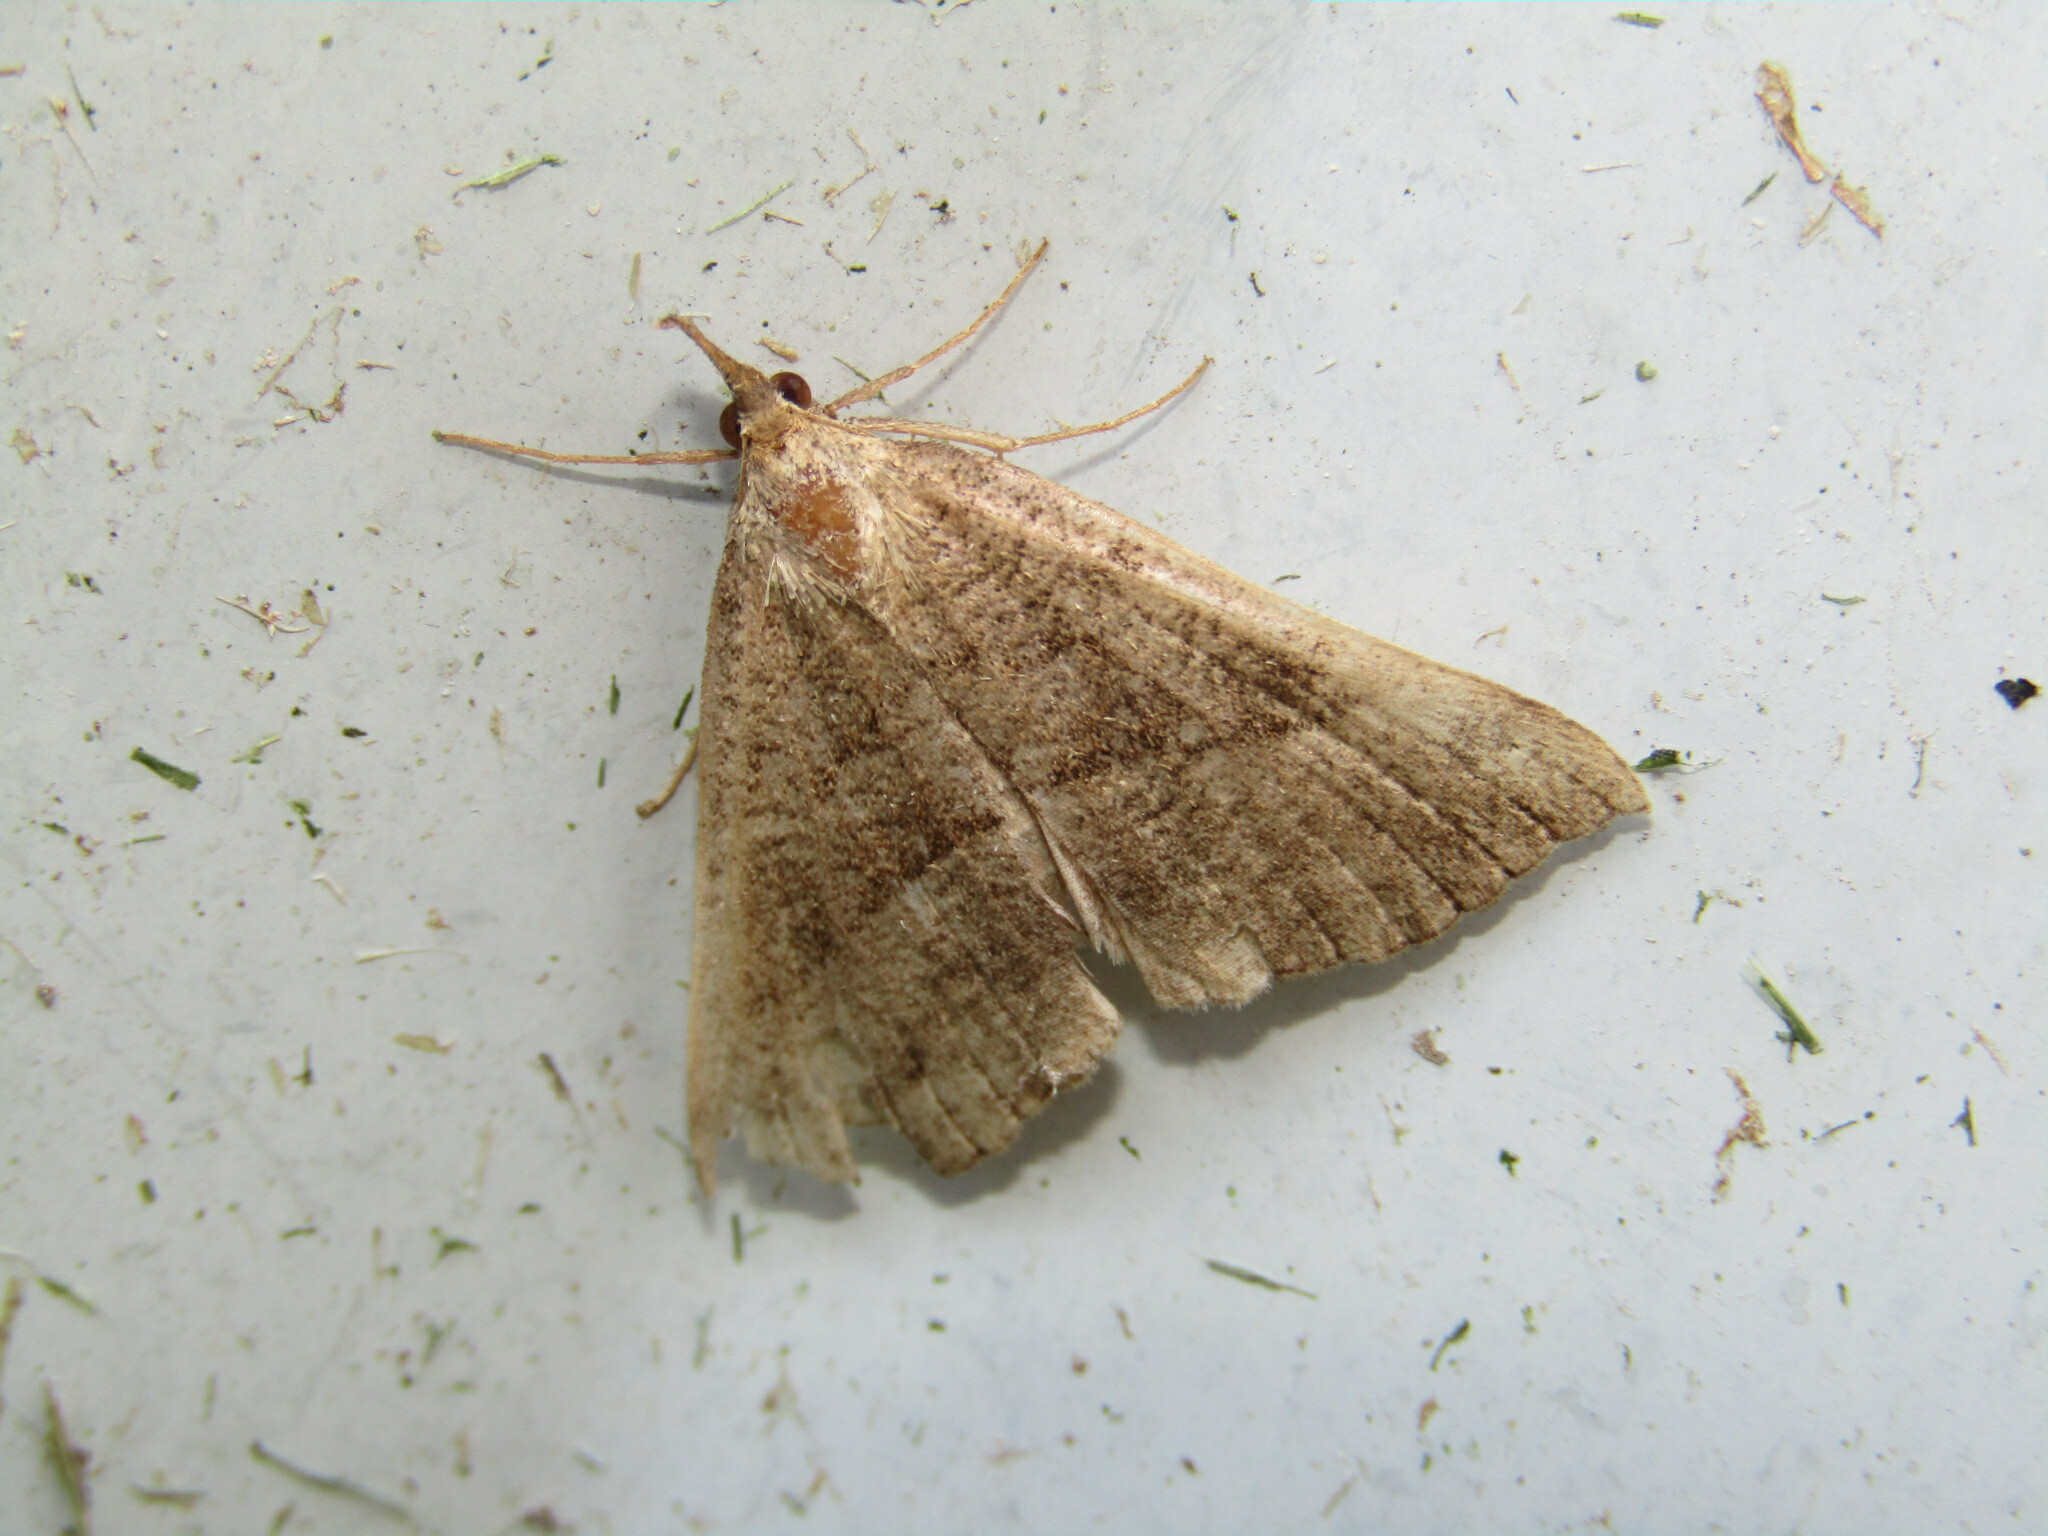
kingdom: Animalia
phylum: Arthropoda
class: Insecta
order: Lepidoptera
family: Erebidae
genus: Hypena
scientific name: Hypena proboscidalis
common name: Snout
